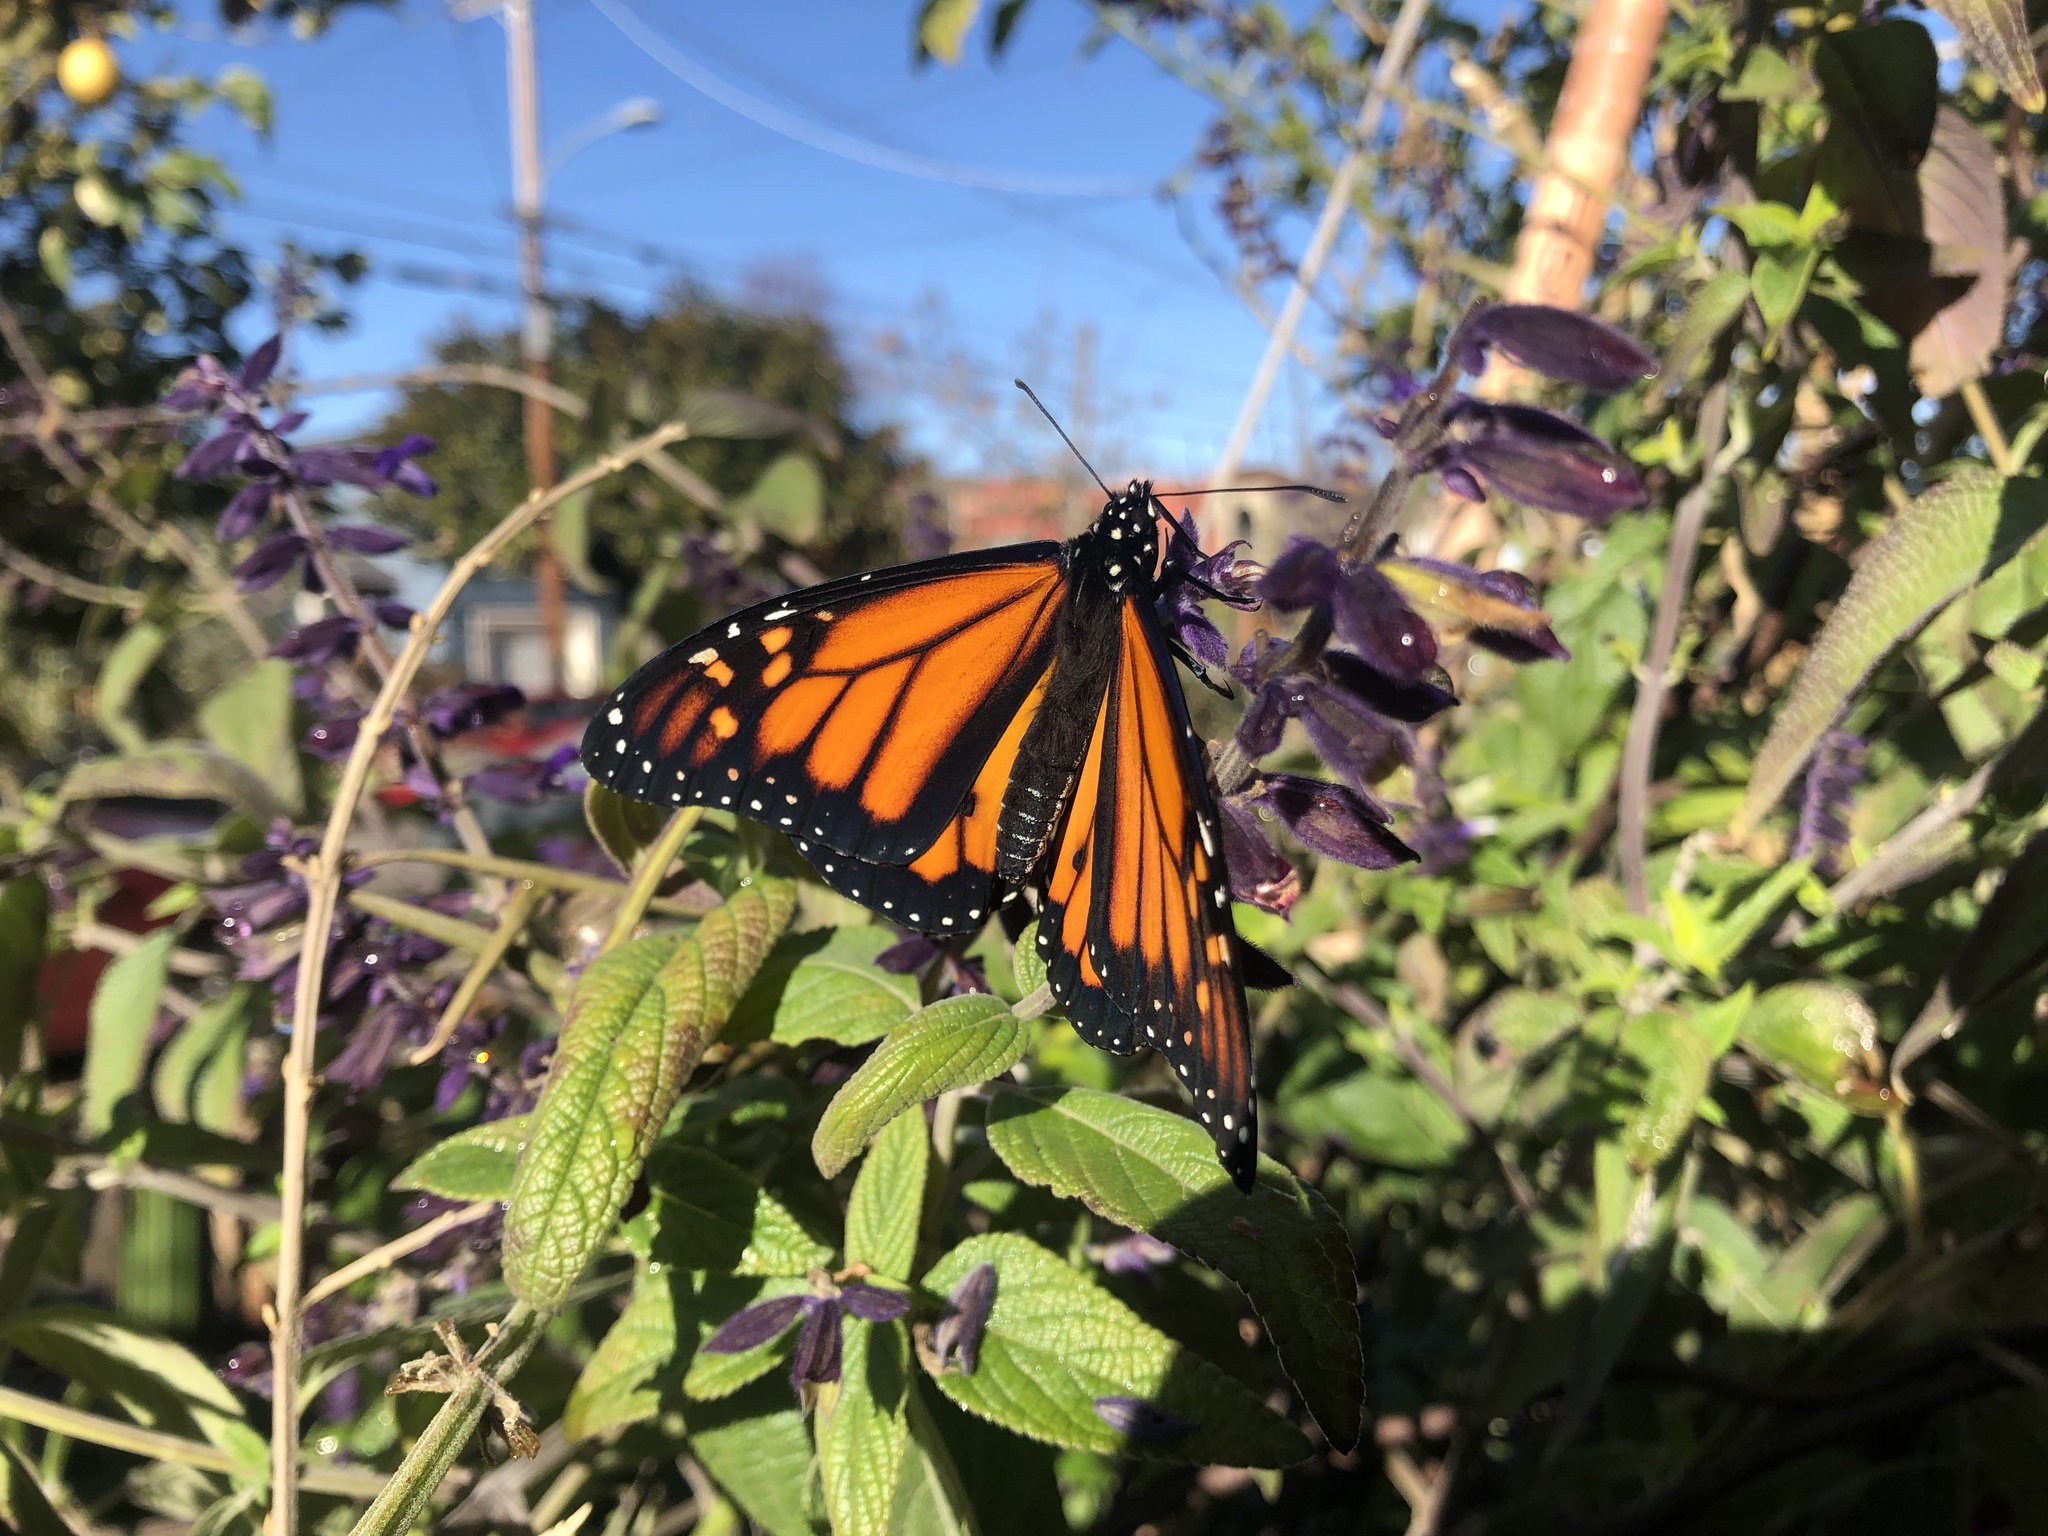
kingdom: Animalia
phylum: Arthropoda
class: Insecta
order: Lepidoptera
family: Nymphalidae
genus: Danaus
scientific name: Danaus plexippus
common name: Monarch
